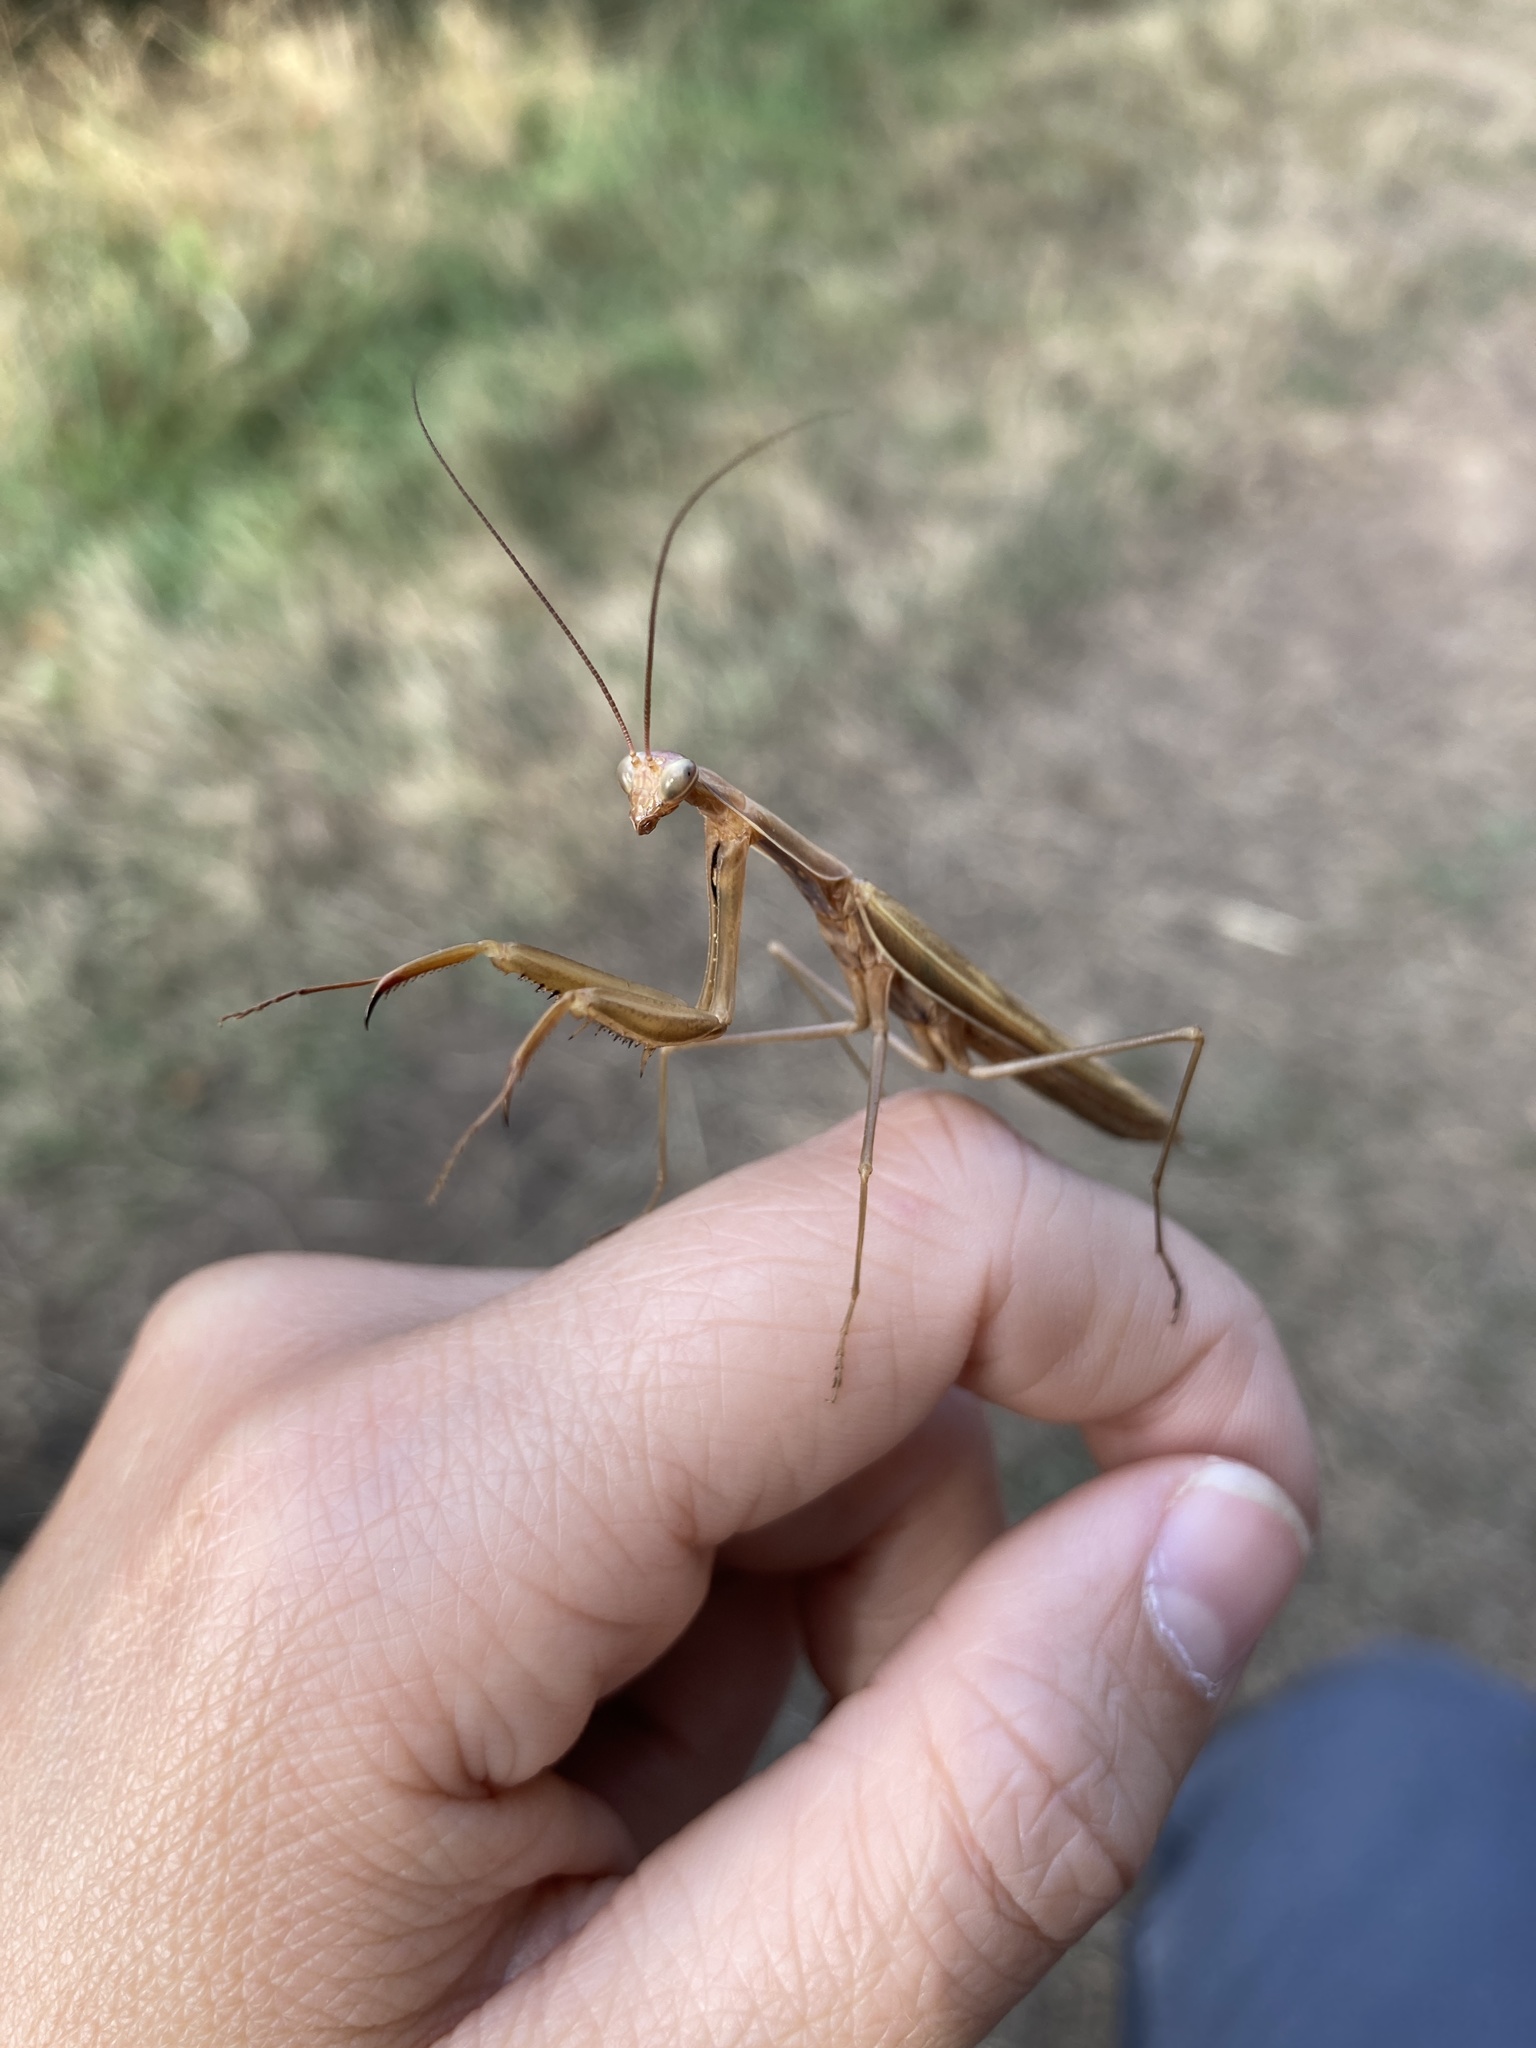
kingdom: Animalia
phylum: Arthropoda
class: Insecta
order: Mantodea
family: Mantidae
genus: Mantis
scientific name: Mantis religiosa
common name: Praying mantis
